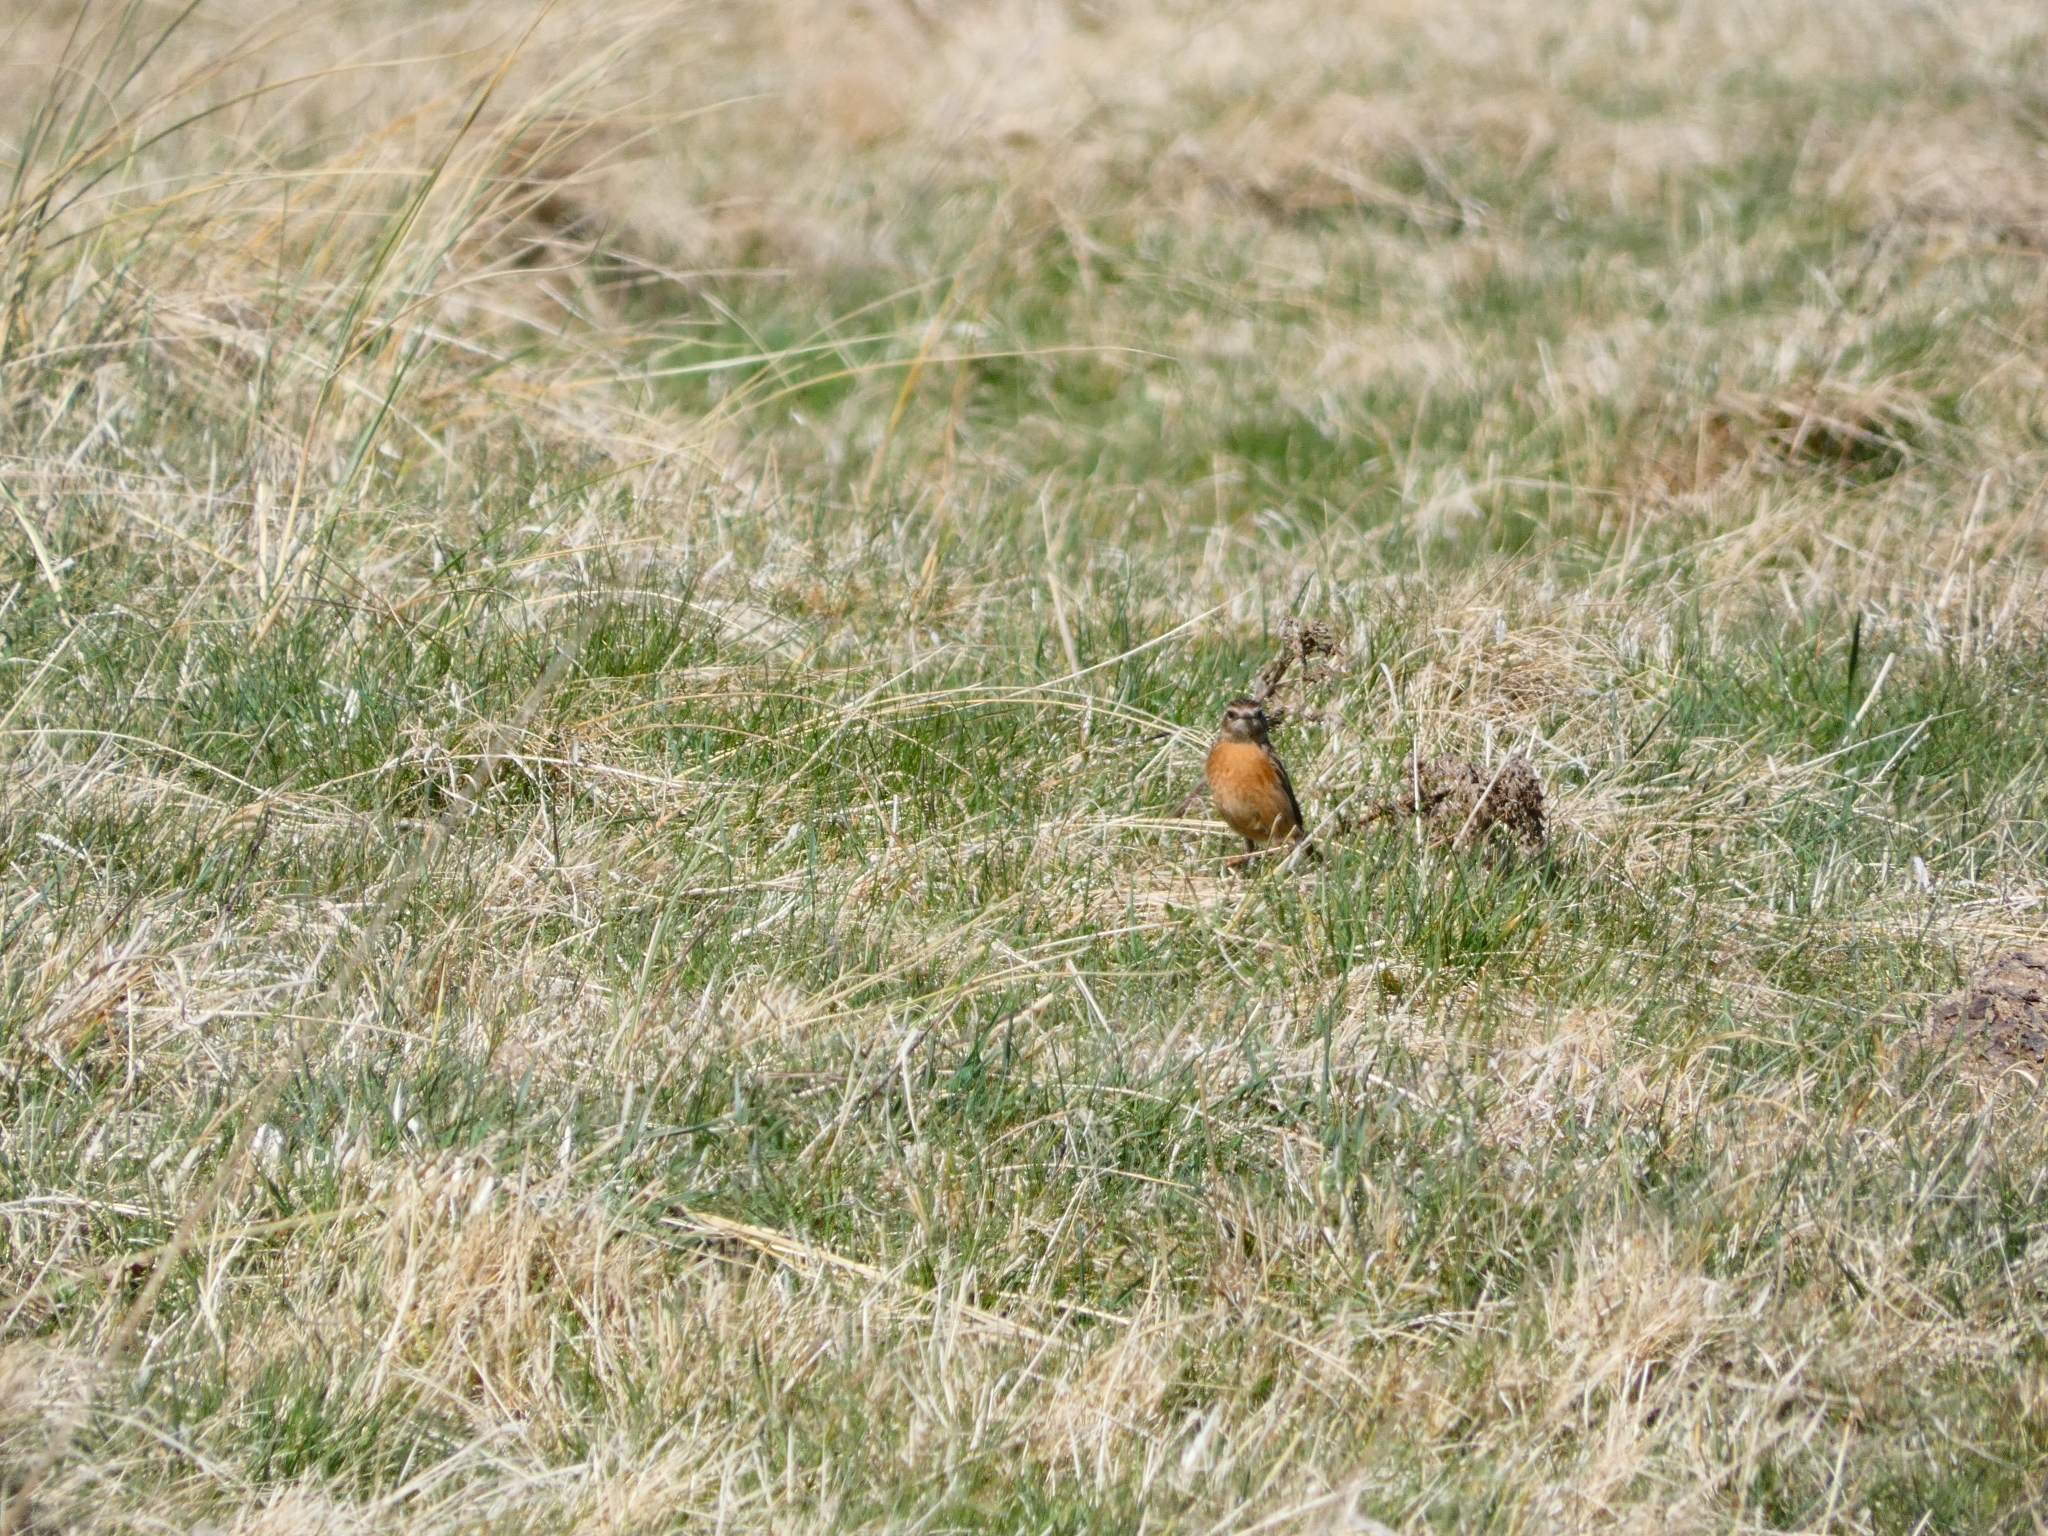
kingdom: Animalia
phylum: Chordata
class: Aves
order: Passeriformes
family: Muscicapidae
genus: Saxicola
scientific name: Saxicola rubetra
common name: Whinchat
